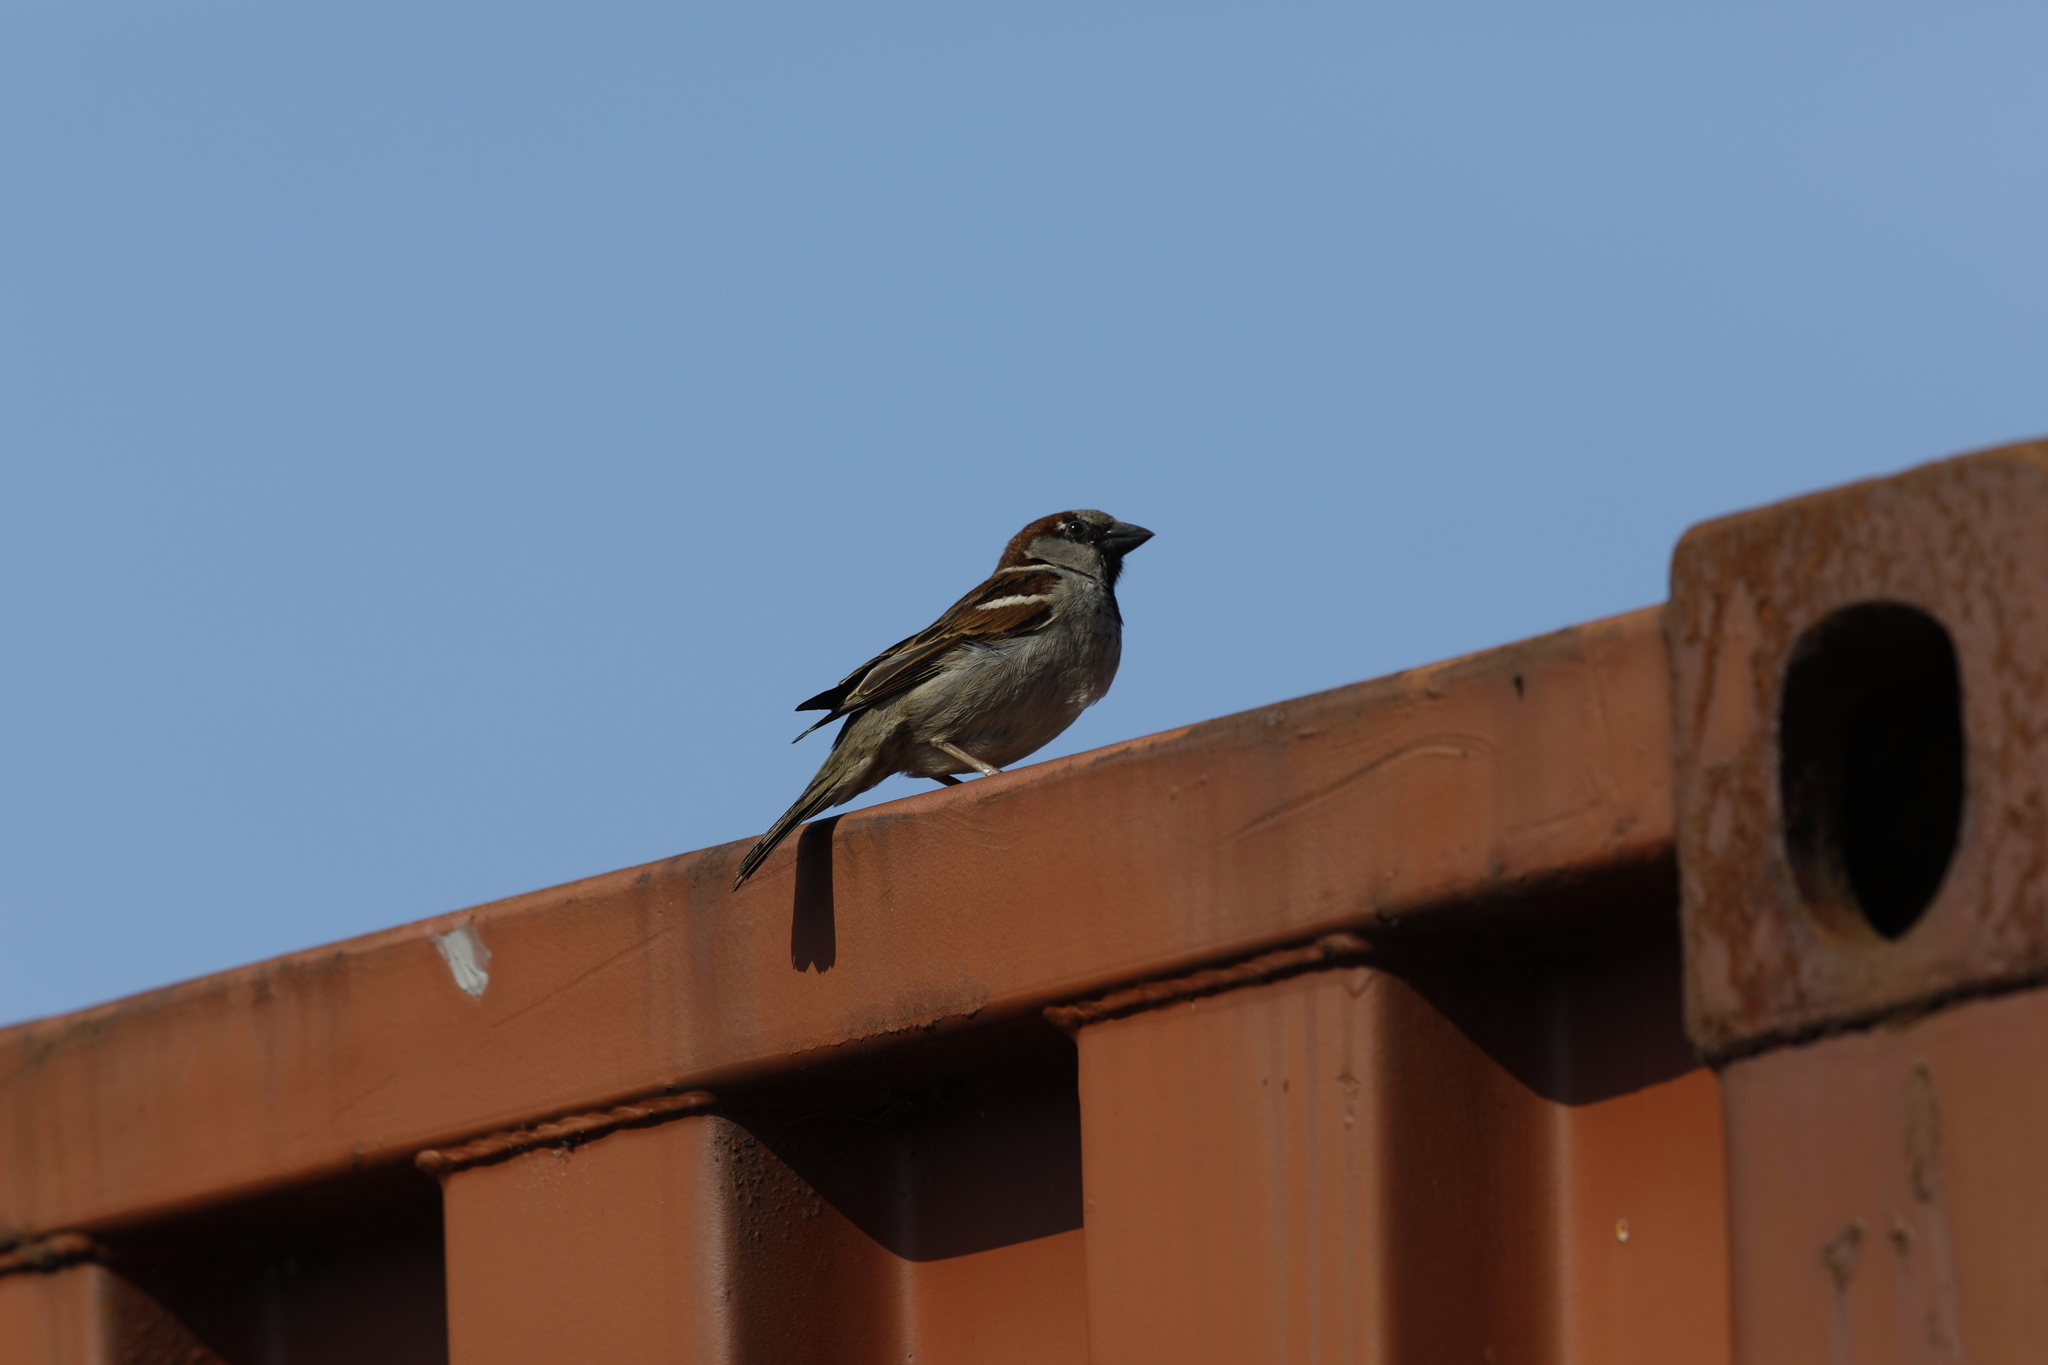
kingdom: Animalia
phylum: Chordata
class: Aves
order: Passeriformes
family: Passeridae
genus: Passer
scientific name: Passer domesticus
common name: House sparrow
